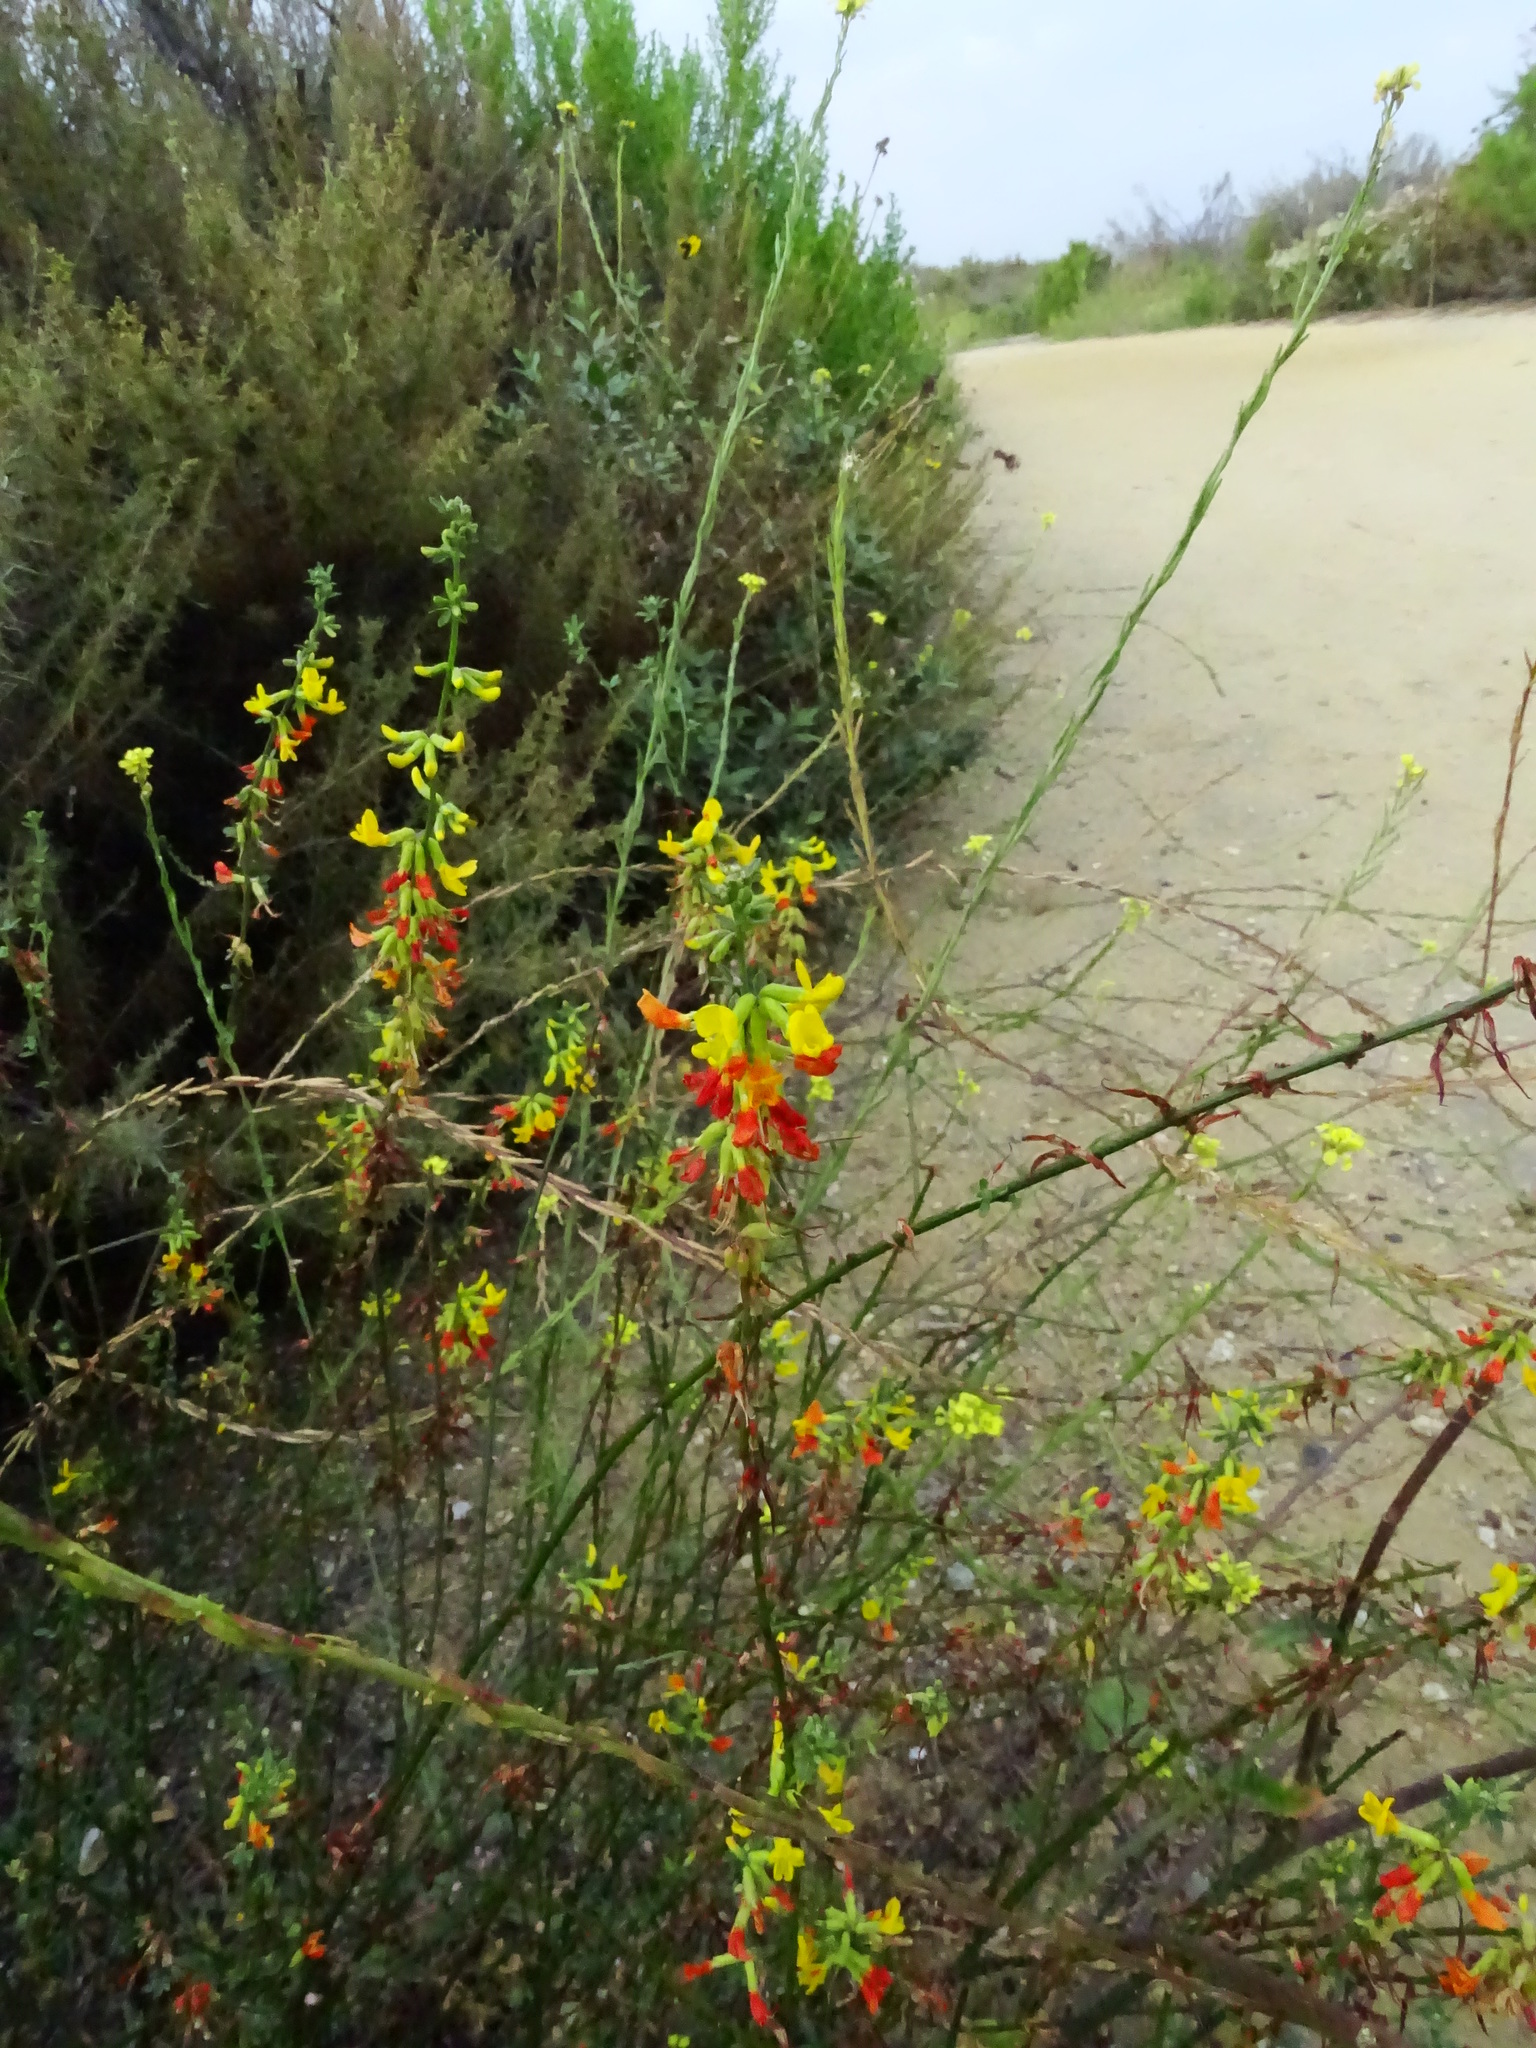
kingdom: Plantae
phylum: Tracheophyta
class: Magnoliopsida
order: Fabales
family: Fabaceae
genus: Acmispon
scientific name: Acmispon glaber
